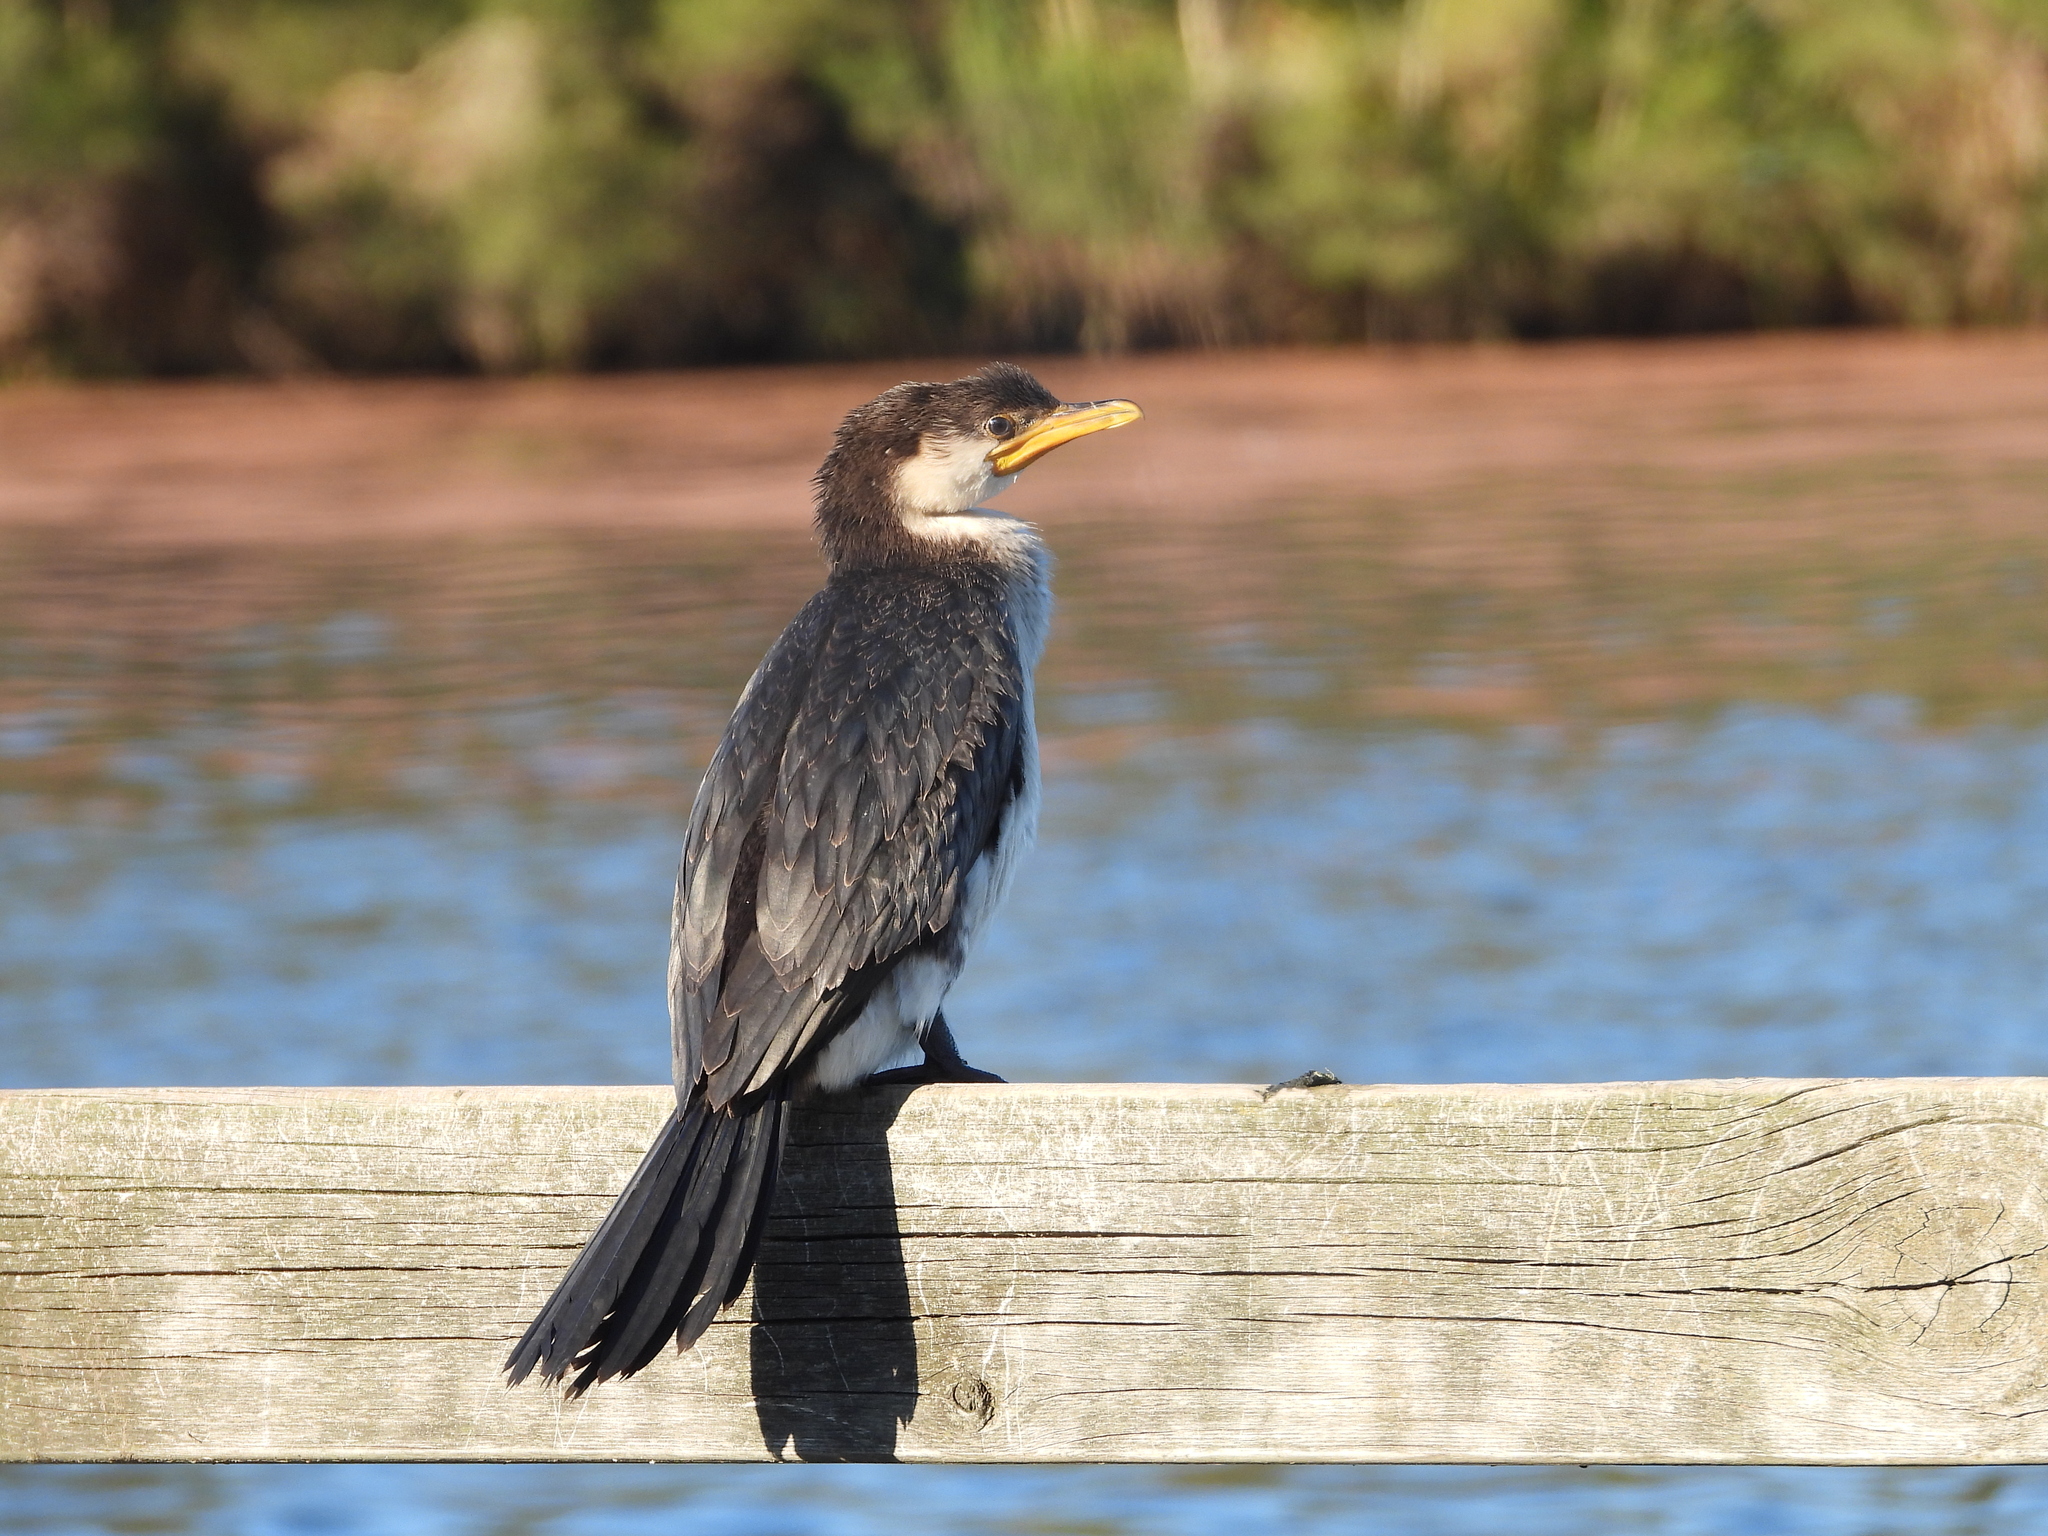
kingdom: Animalia
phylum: Chordata
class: Aves
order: Suliformes
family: Phalacrocoracidae
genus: Microcarbo
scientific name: Microcarbo melanoleucos
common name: Little pied cormorant
